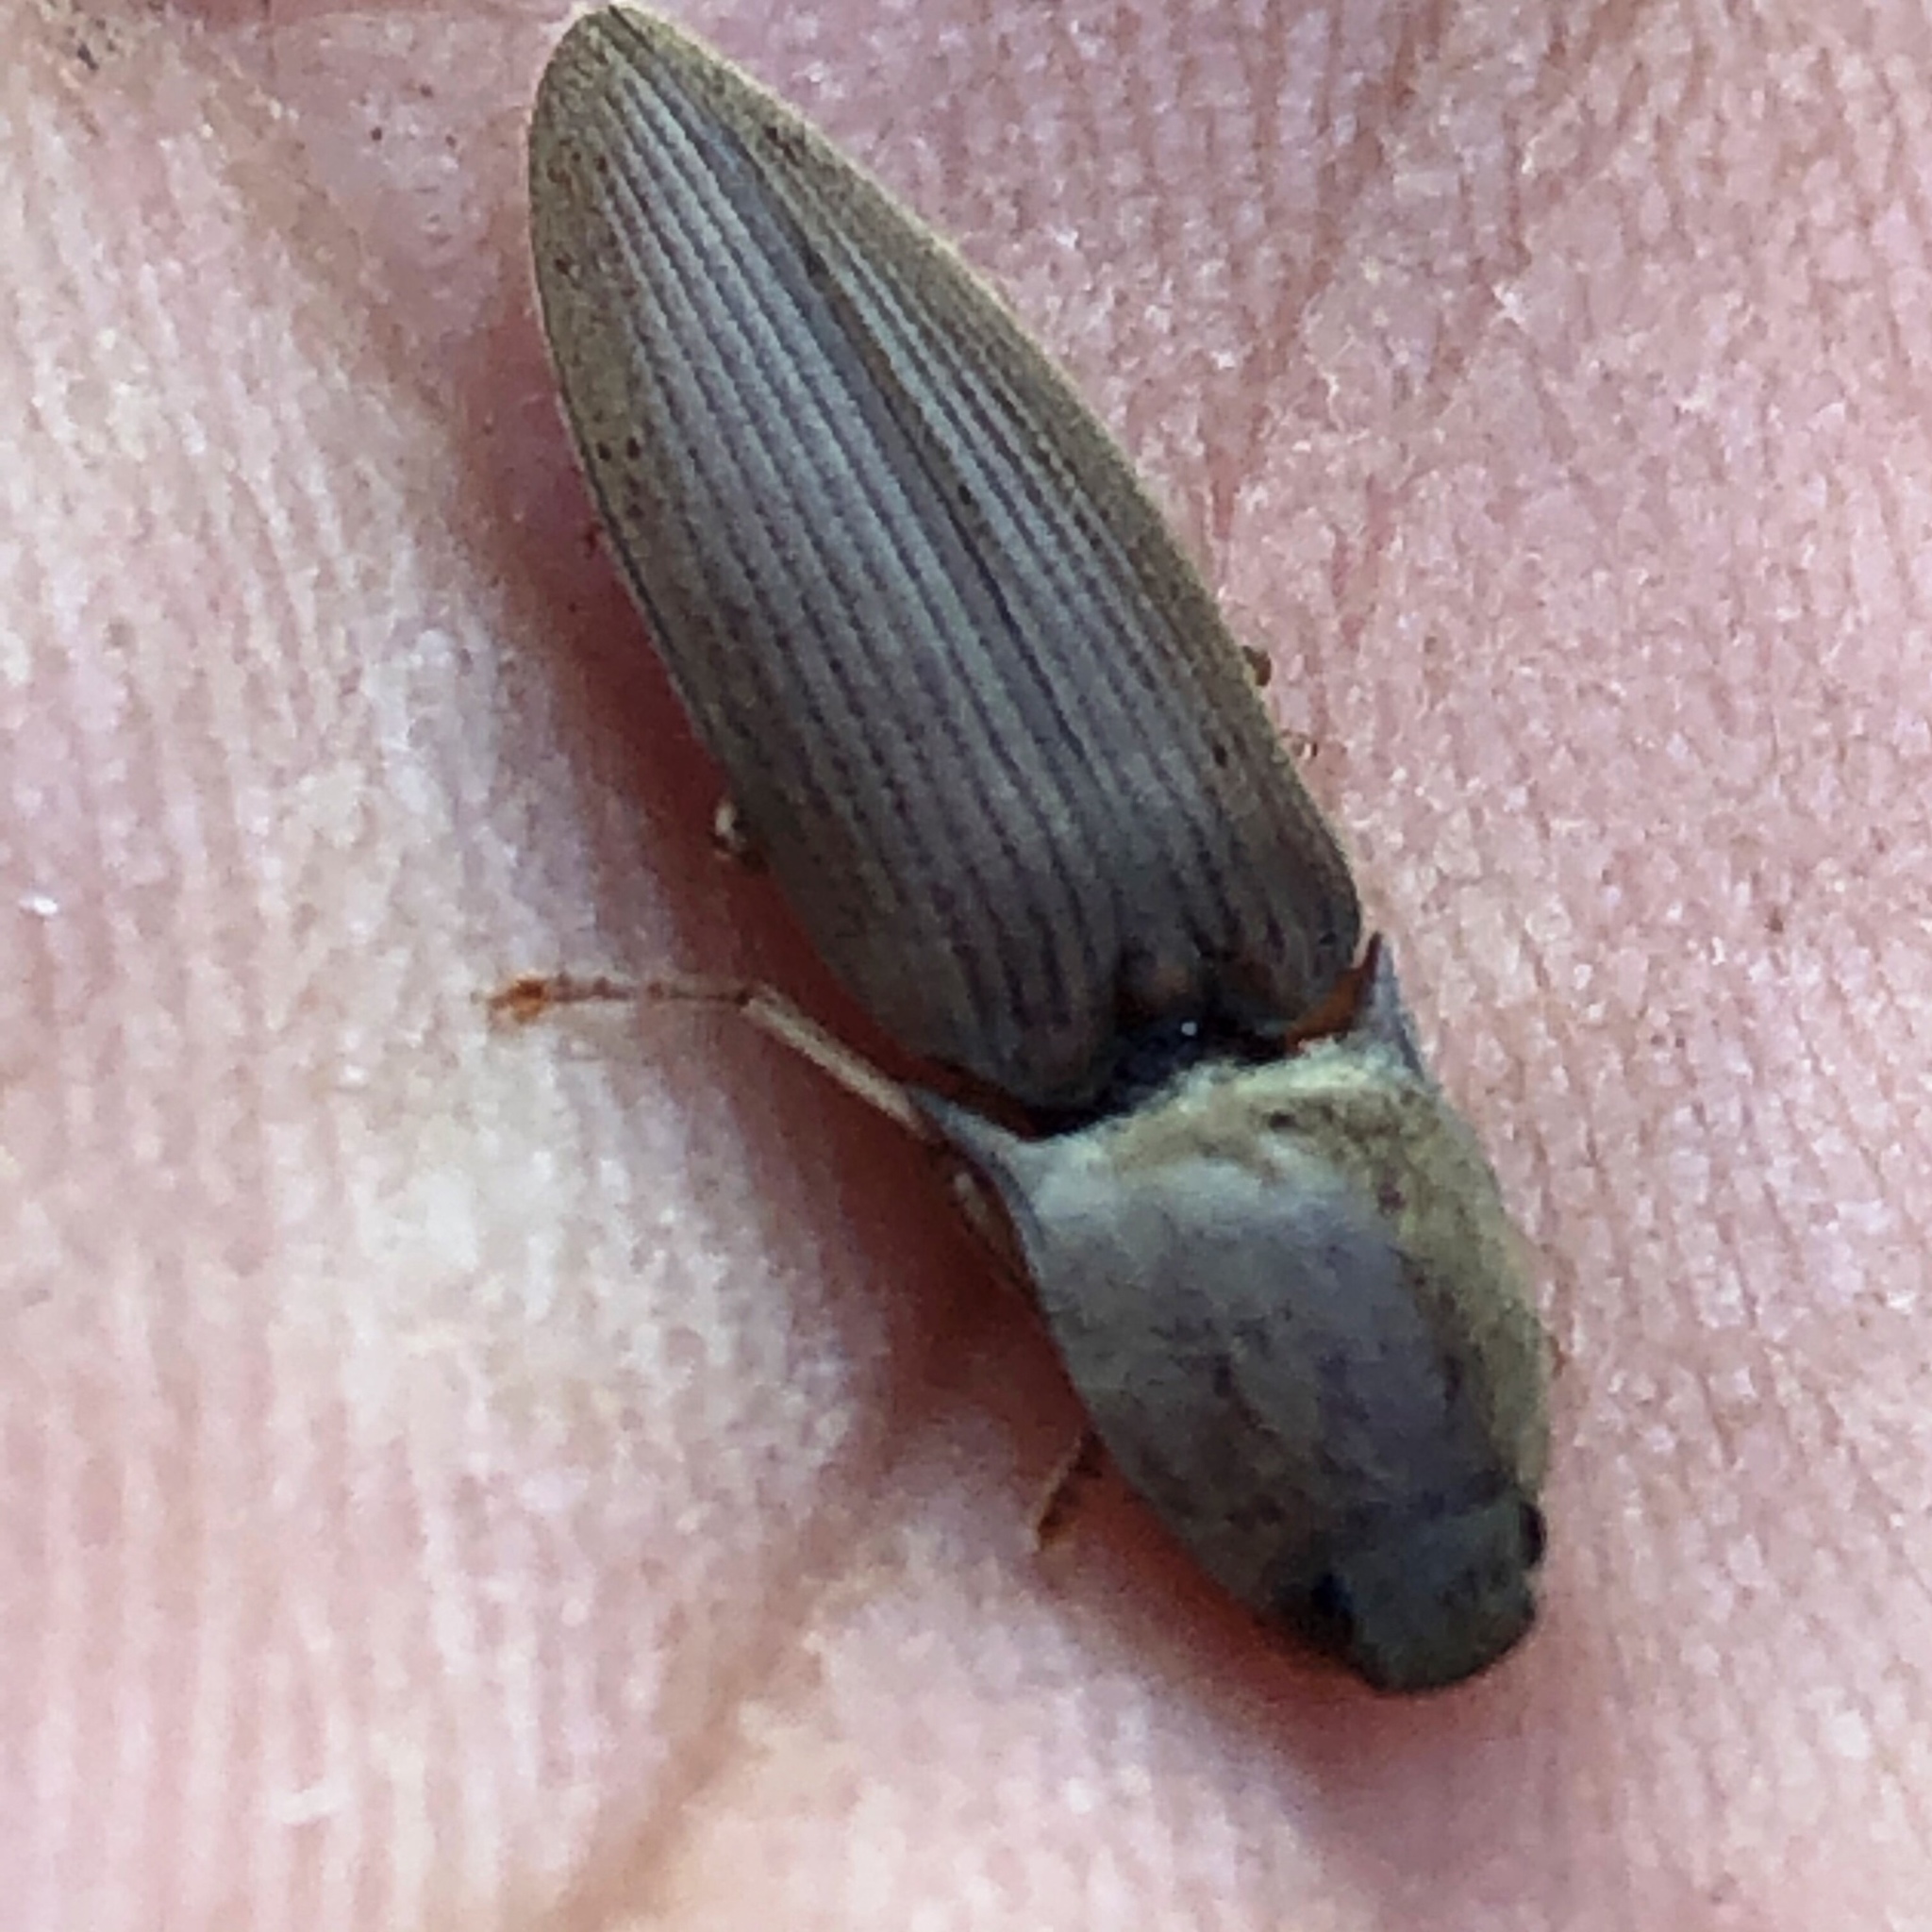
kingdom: Animalia
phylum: Arthropoda
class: Insecta
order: Coleoptera
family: Elateridae
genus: Monocrepidius
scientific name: Monocrepidius lividus
